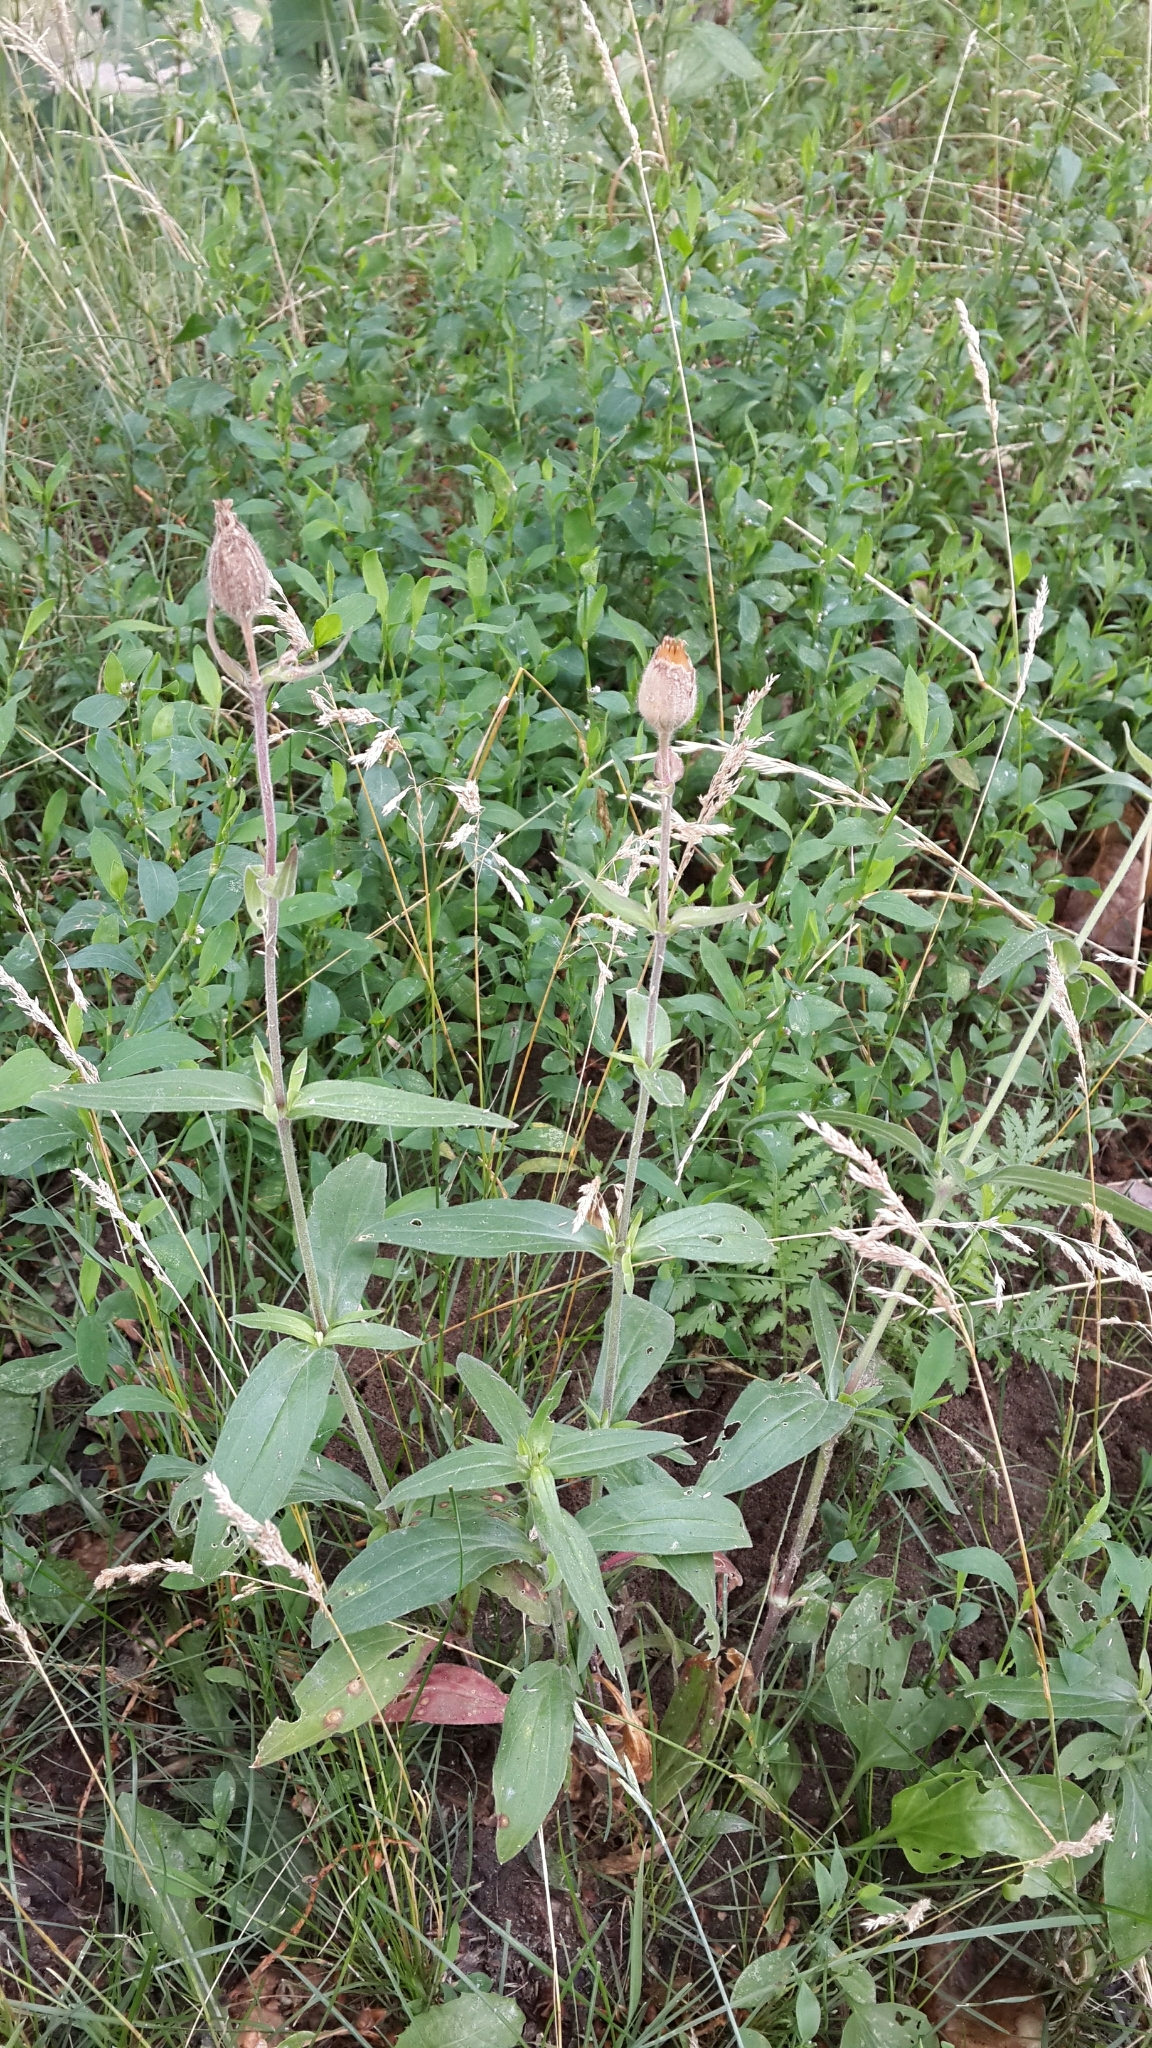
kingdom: Plantae
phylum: Tracheophyta
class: Magnoliopsida
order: Caryophyllales
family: Caryophyllaceae
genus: Silene
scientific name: Silene latifolia
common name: White campion
